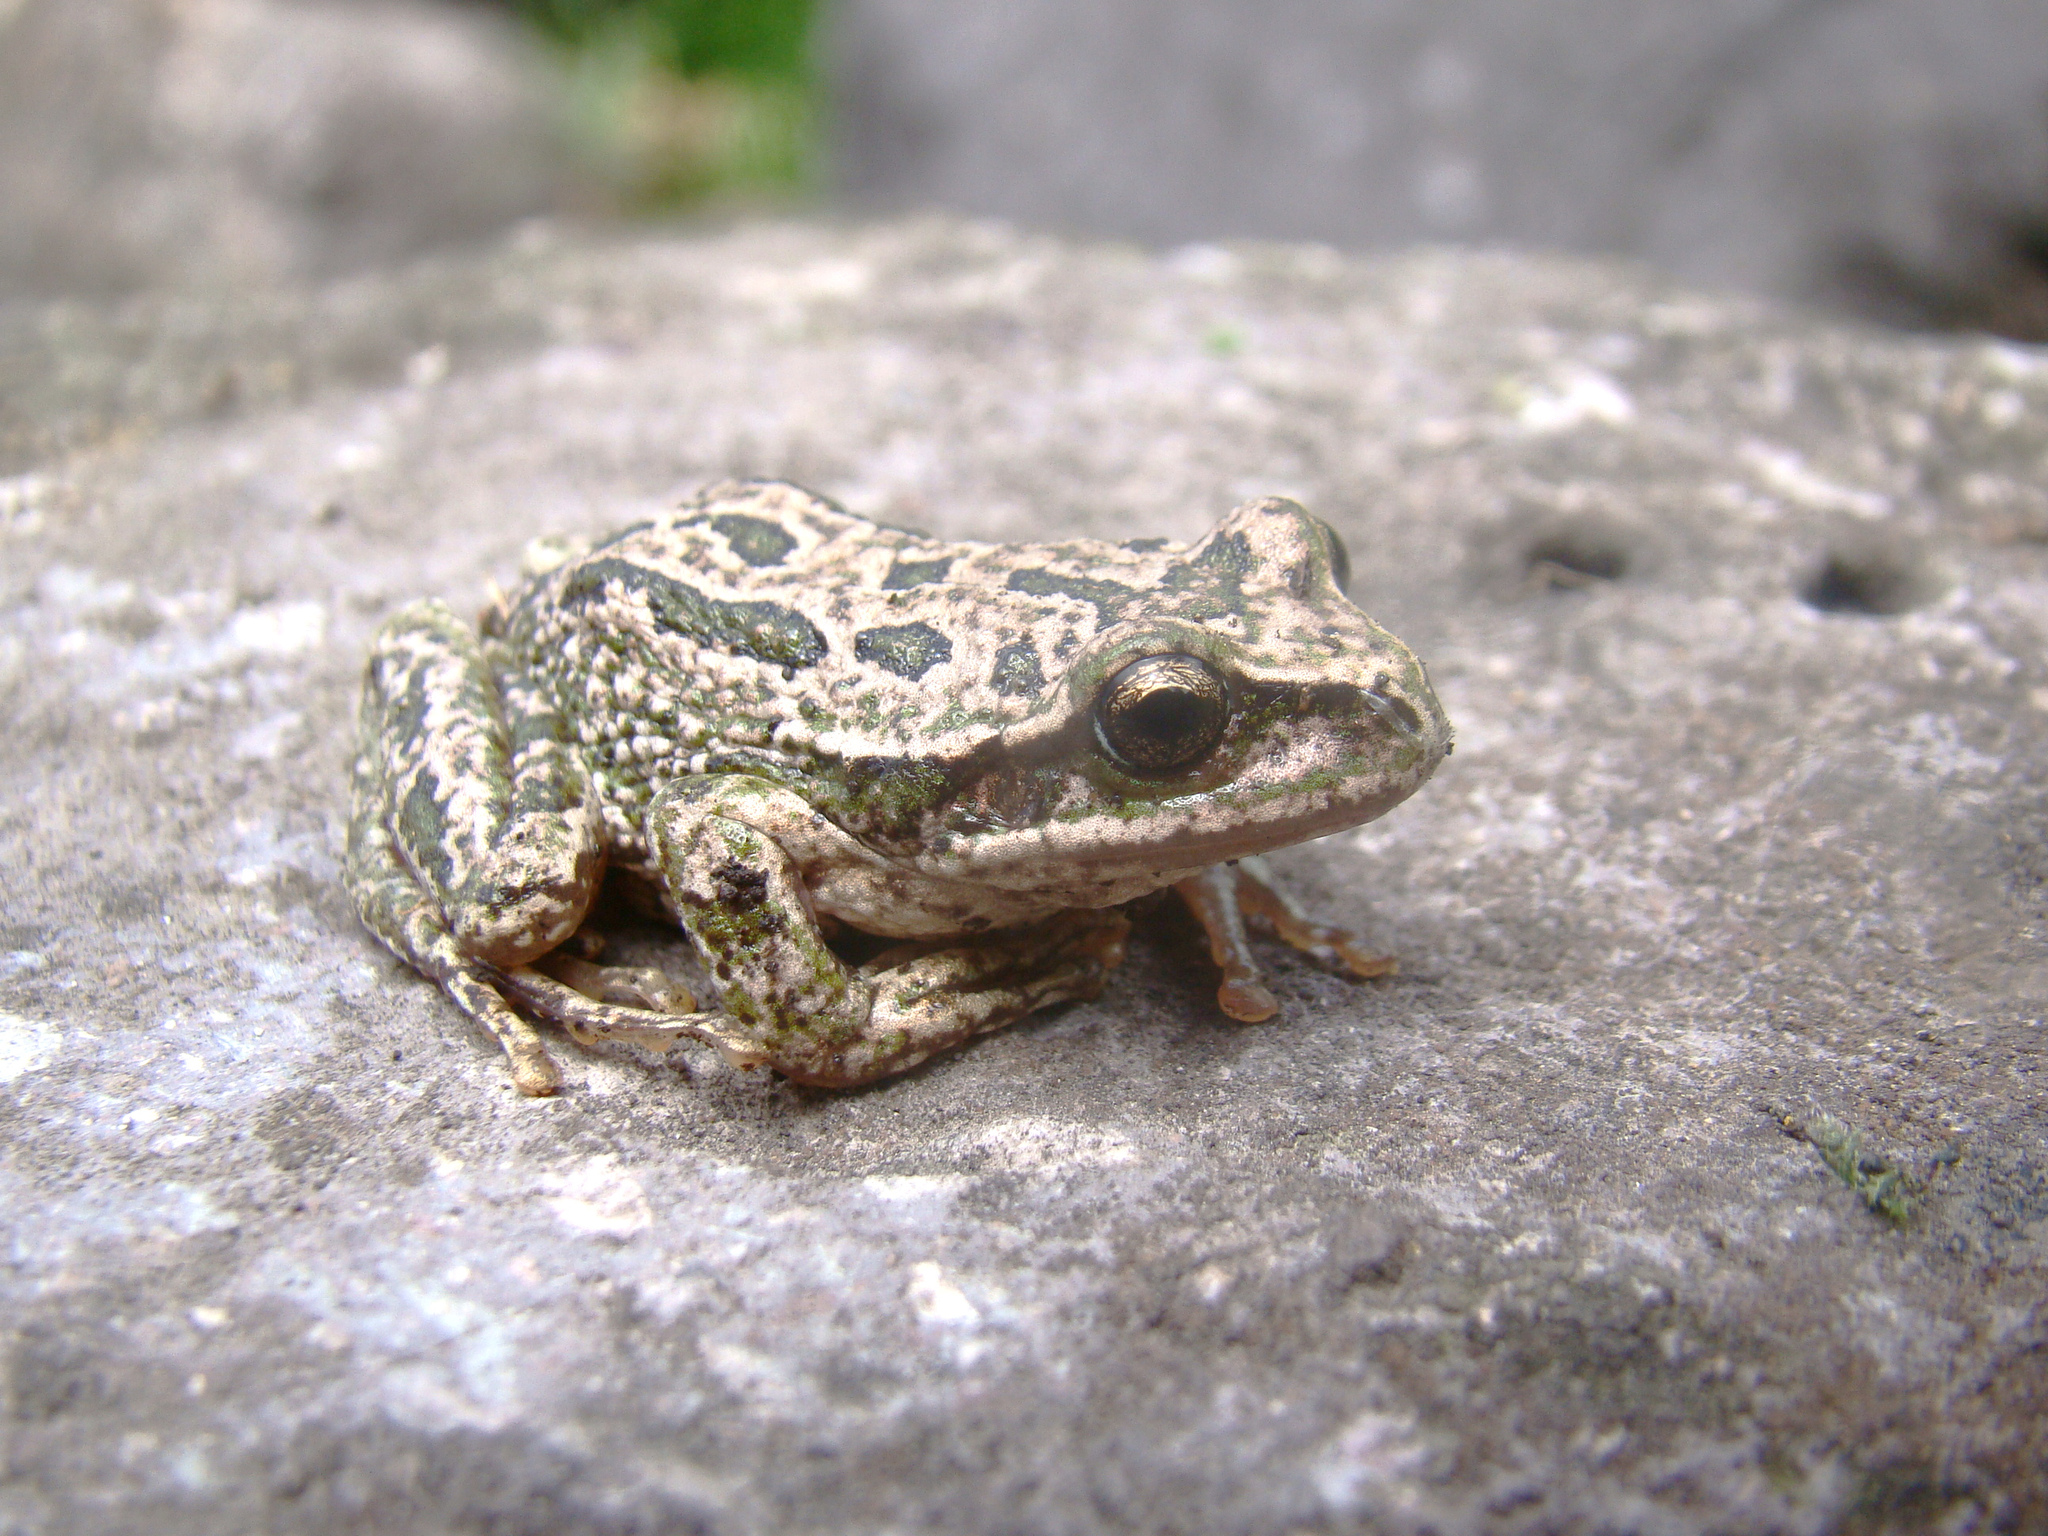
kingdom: Animalia
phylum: Chordata
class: Amphibia
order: Anura
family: Hemiphractidae
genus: Gastrotheca
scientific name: Gastrotheca marsupiata
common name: Common marsupial frog
